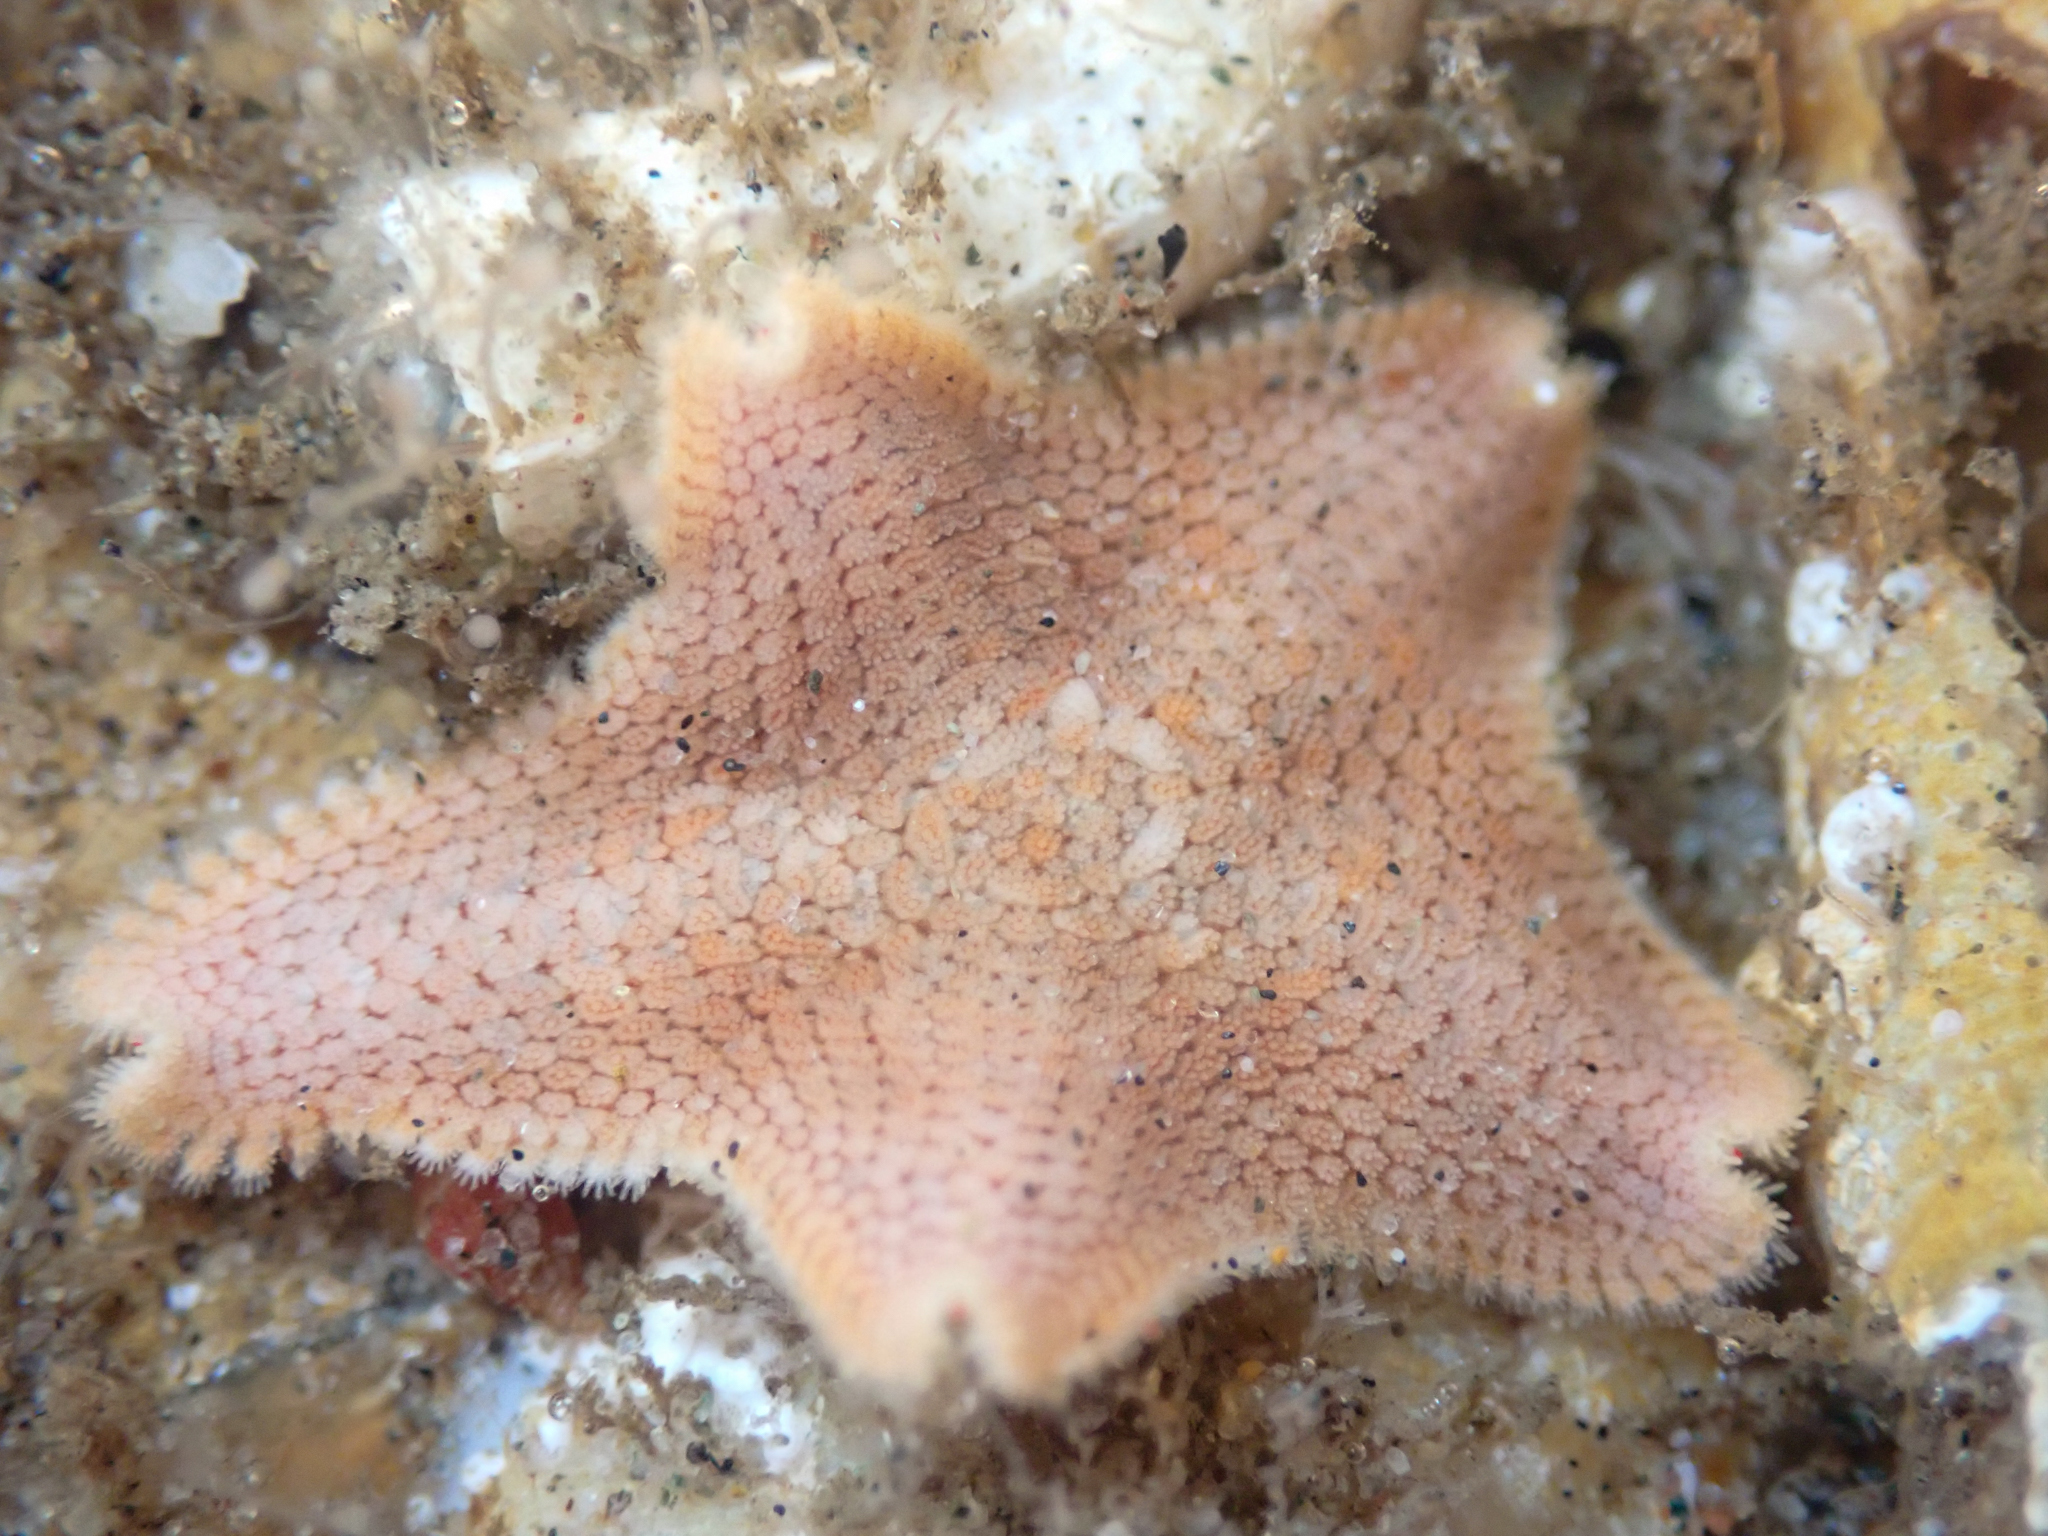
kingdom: Animalia
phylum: Echinodermata
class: Asteroidea
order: Valvatida
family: Asterinidae
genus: Patiria
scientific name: Patiria miniata
